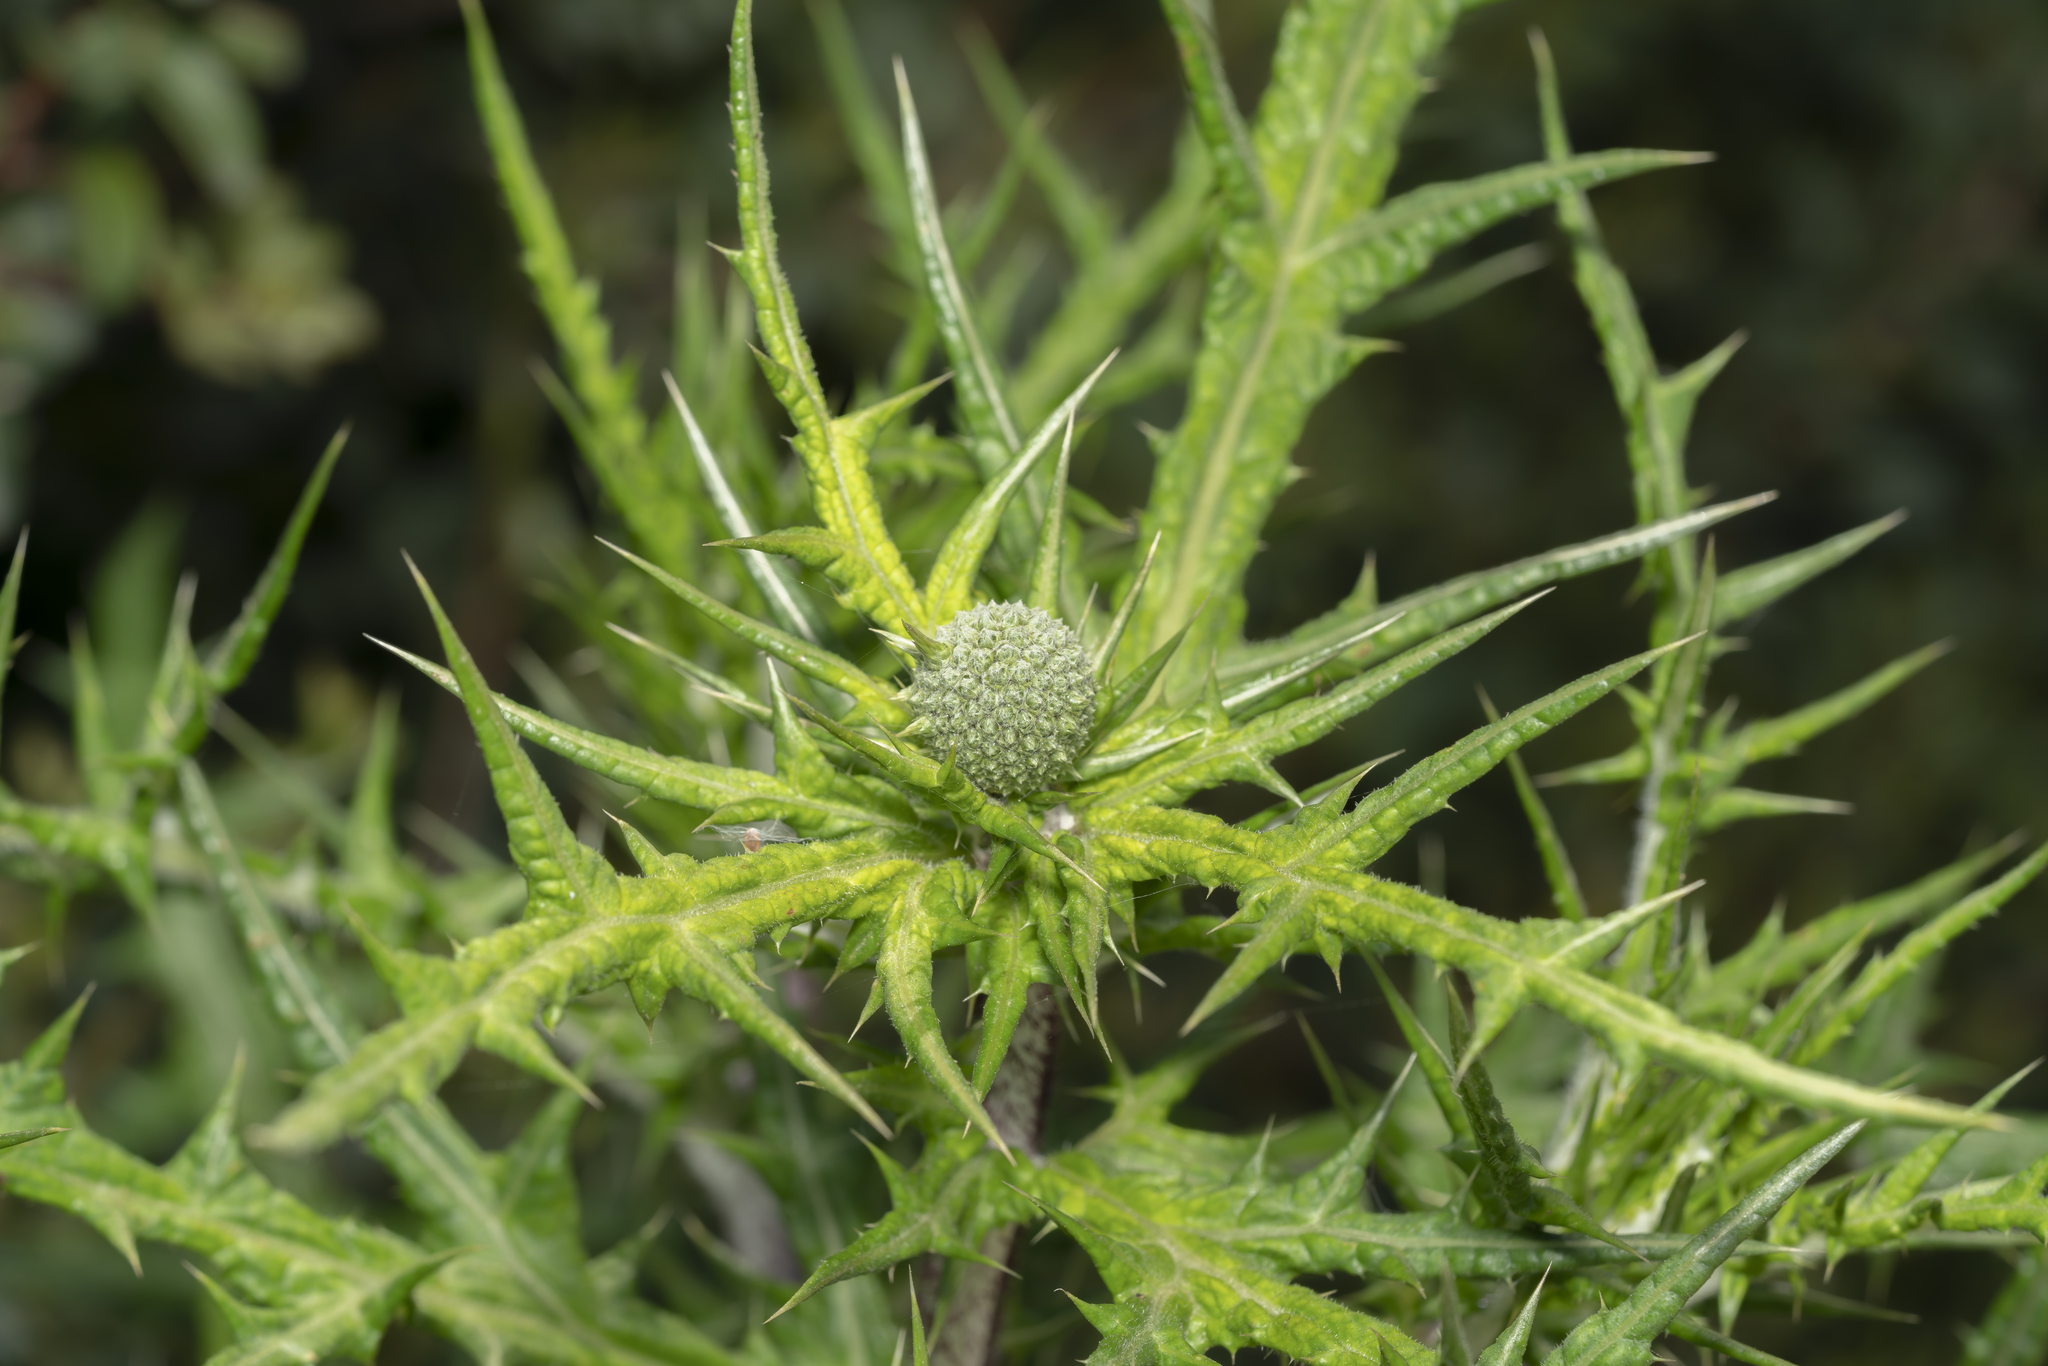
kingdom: Plantae
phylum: Tracheophyta
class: Magnoliopsida
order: Asterales
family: Asteraceae
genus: Echinops
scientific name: Echinops spinosissimus
